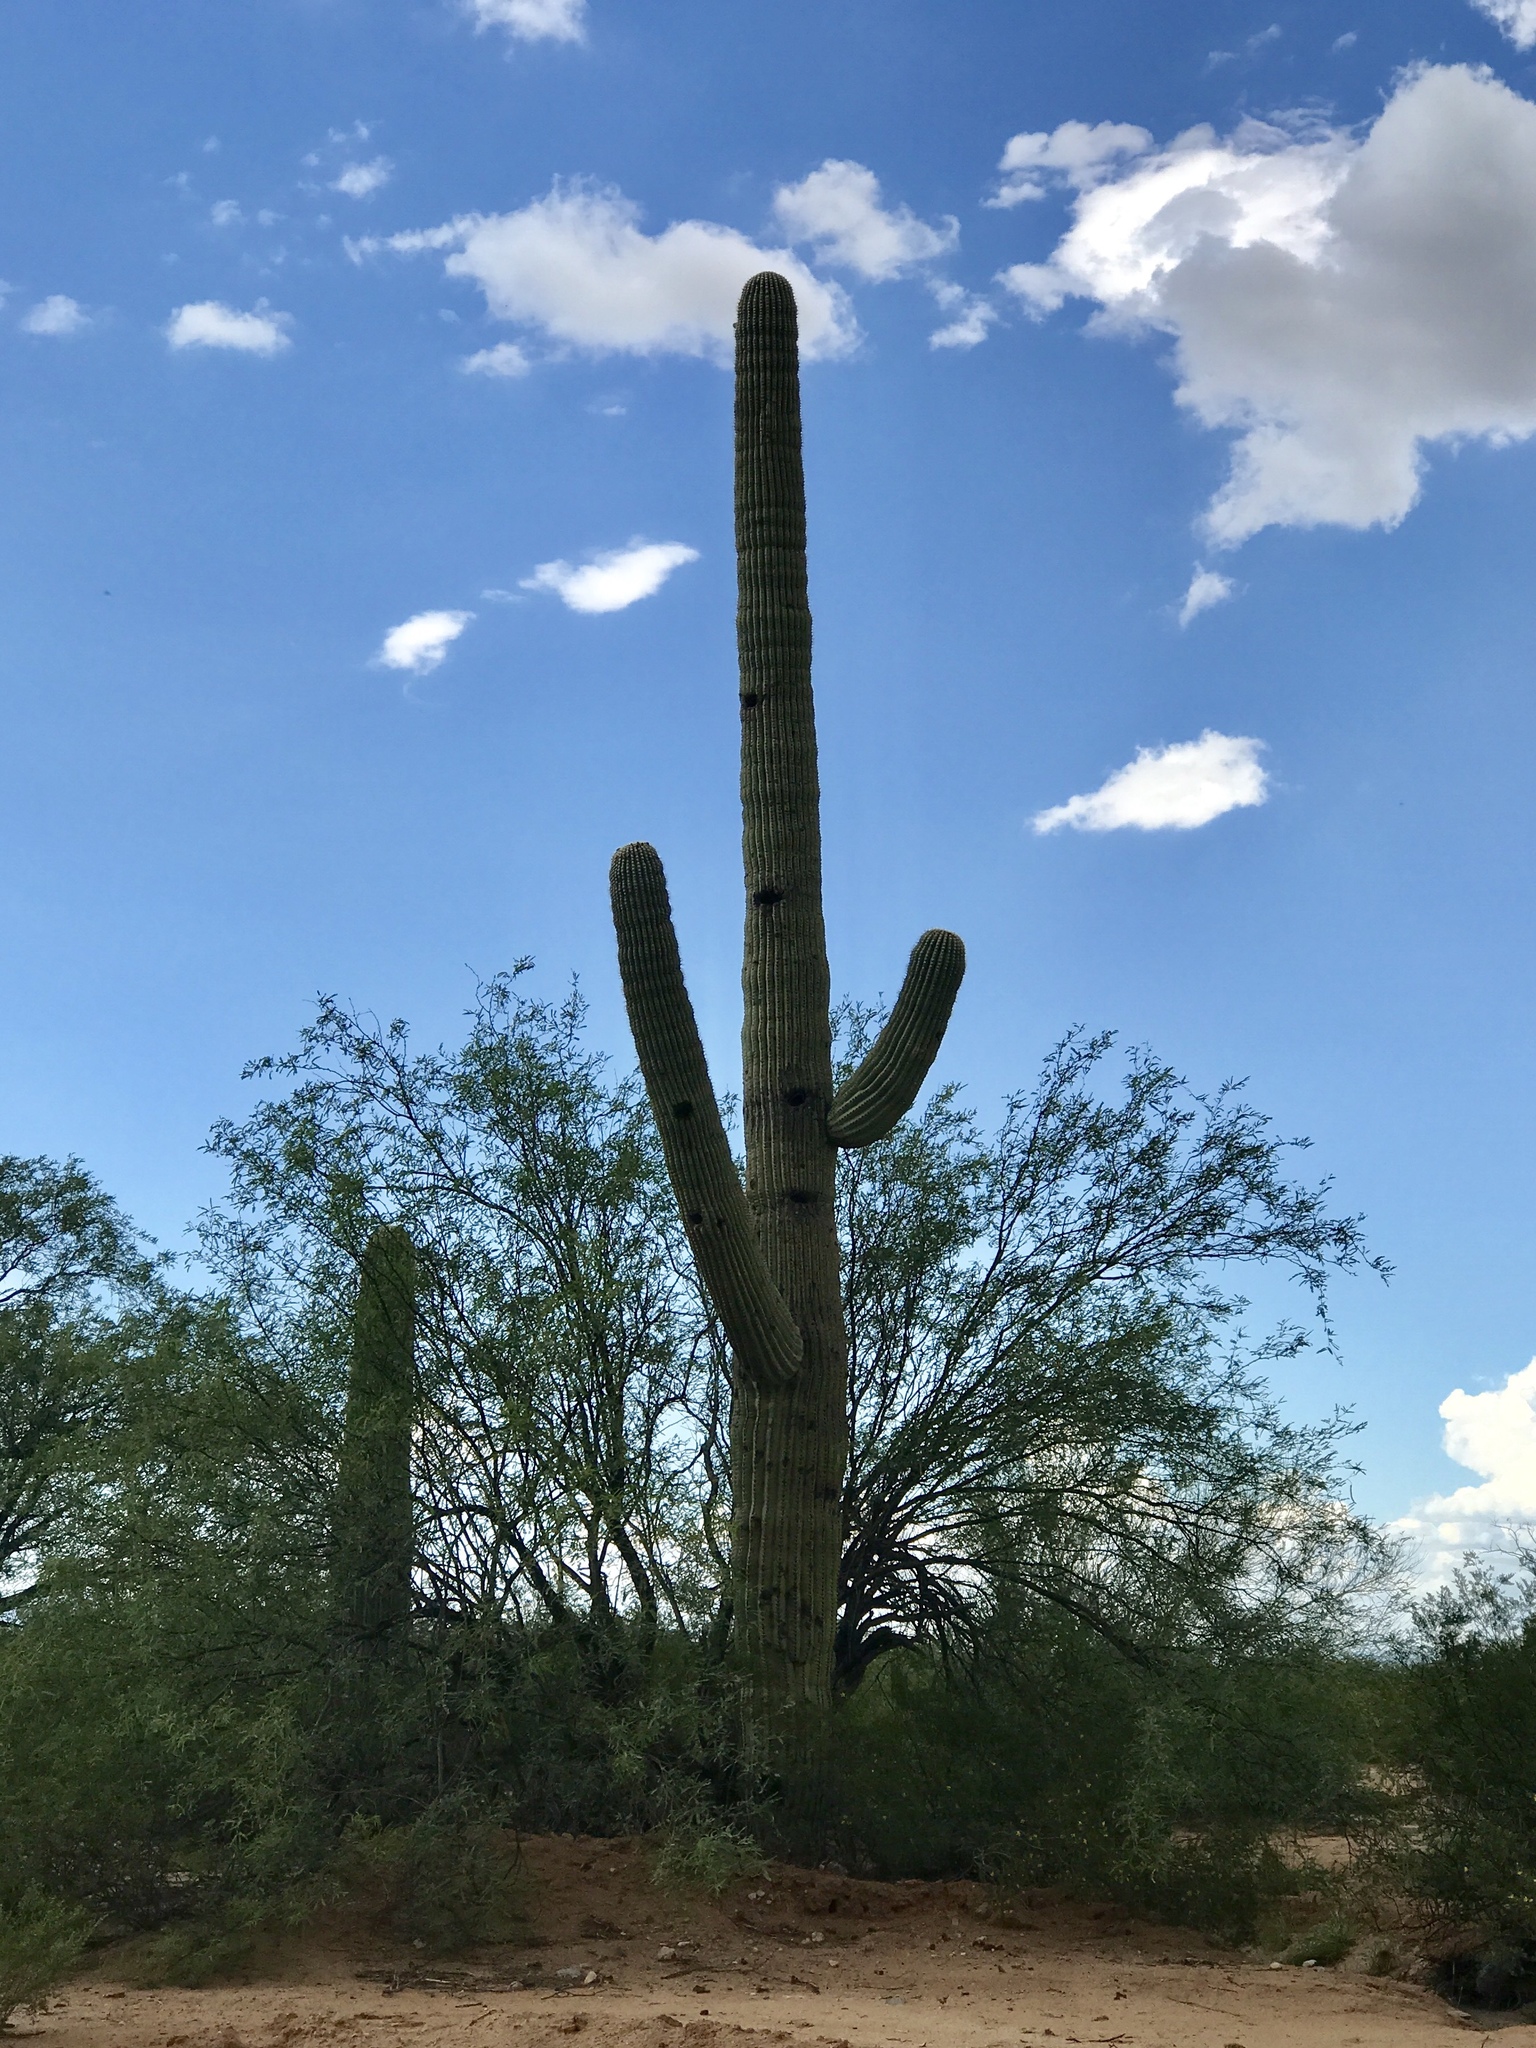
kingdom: Plantae
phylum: Tracheophyta
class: Magnoliopsida
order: Caryophyllales
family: Cactaceae
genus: Carnegiea
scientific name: Carnegiea gigantea
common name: Saguaro
